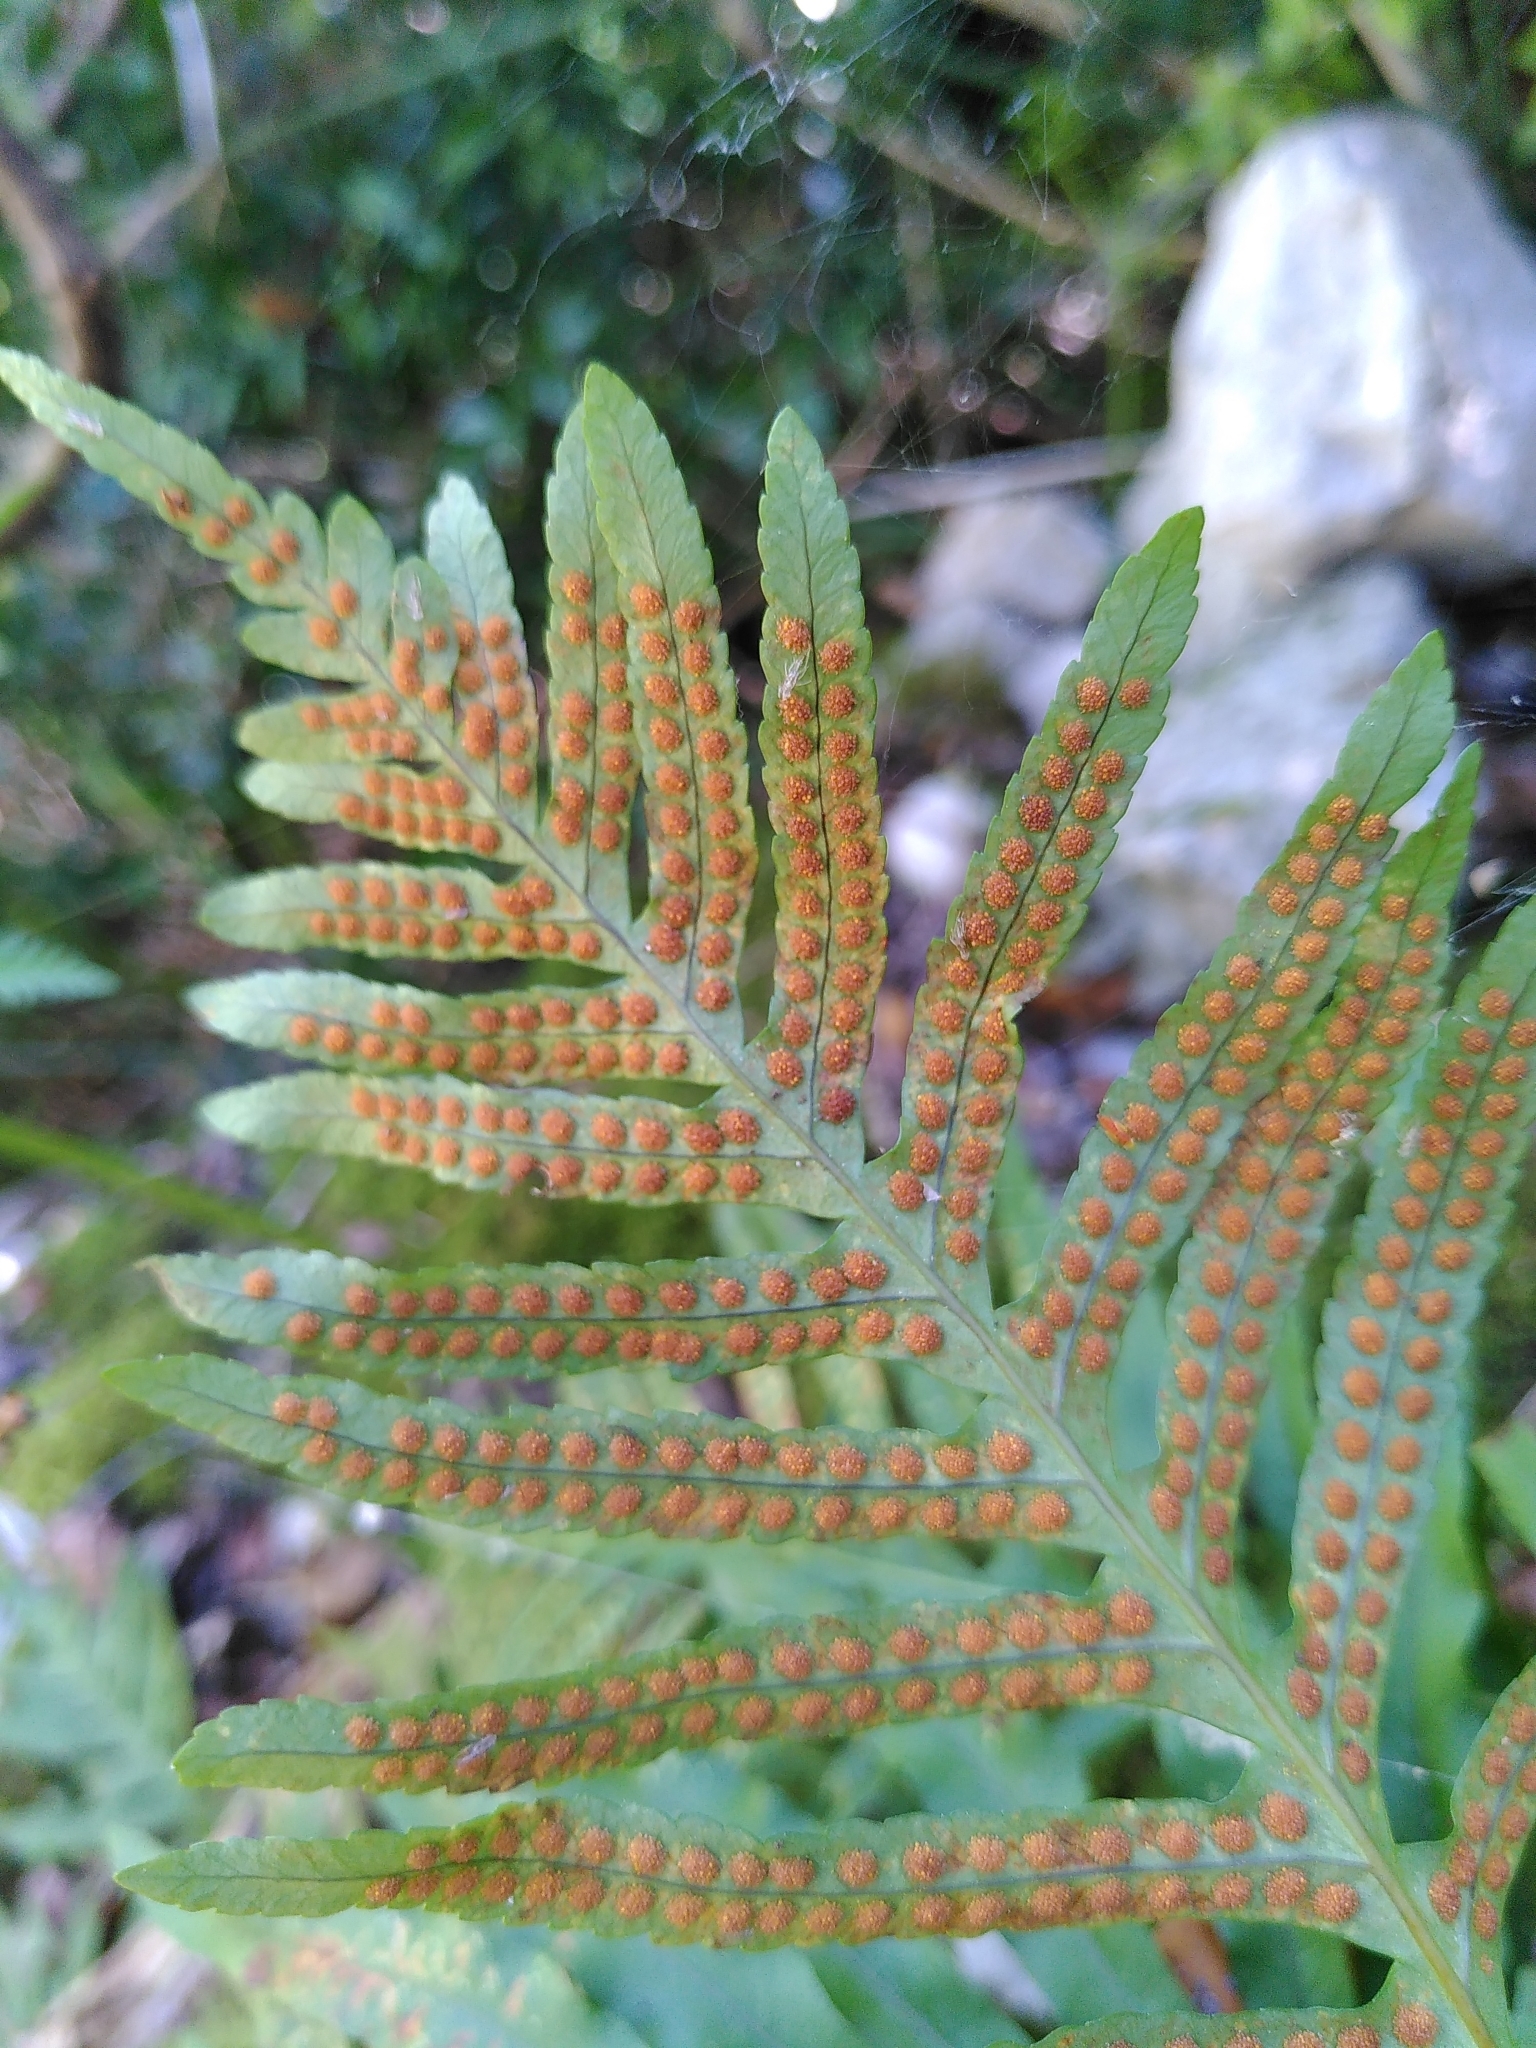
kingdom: Plantae
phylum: Tracheophyta
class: Polypodiopsida
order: Polypodiales
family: Polypodiaceae
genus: Polypodium
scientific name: Polypodium cambricum
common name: Southern polypody
